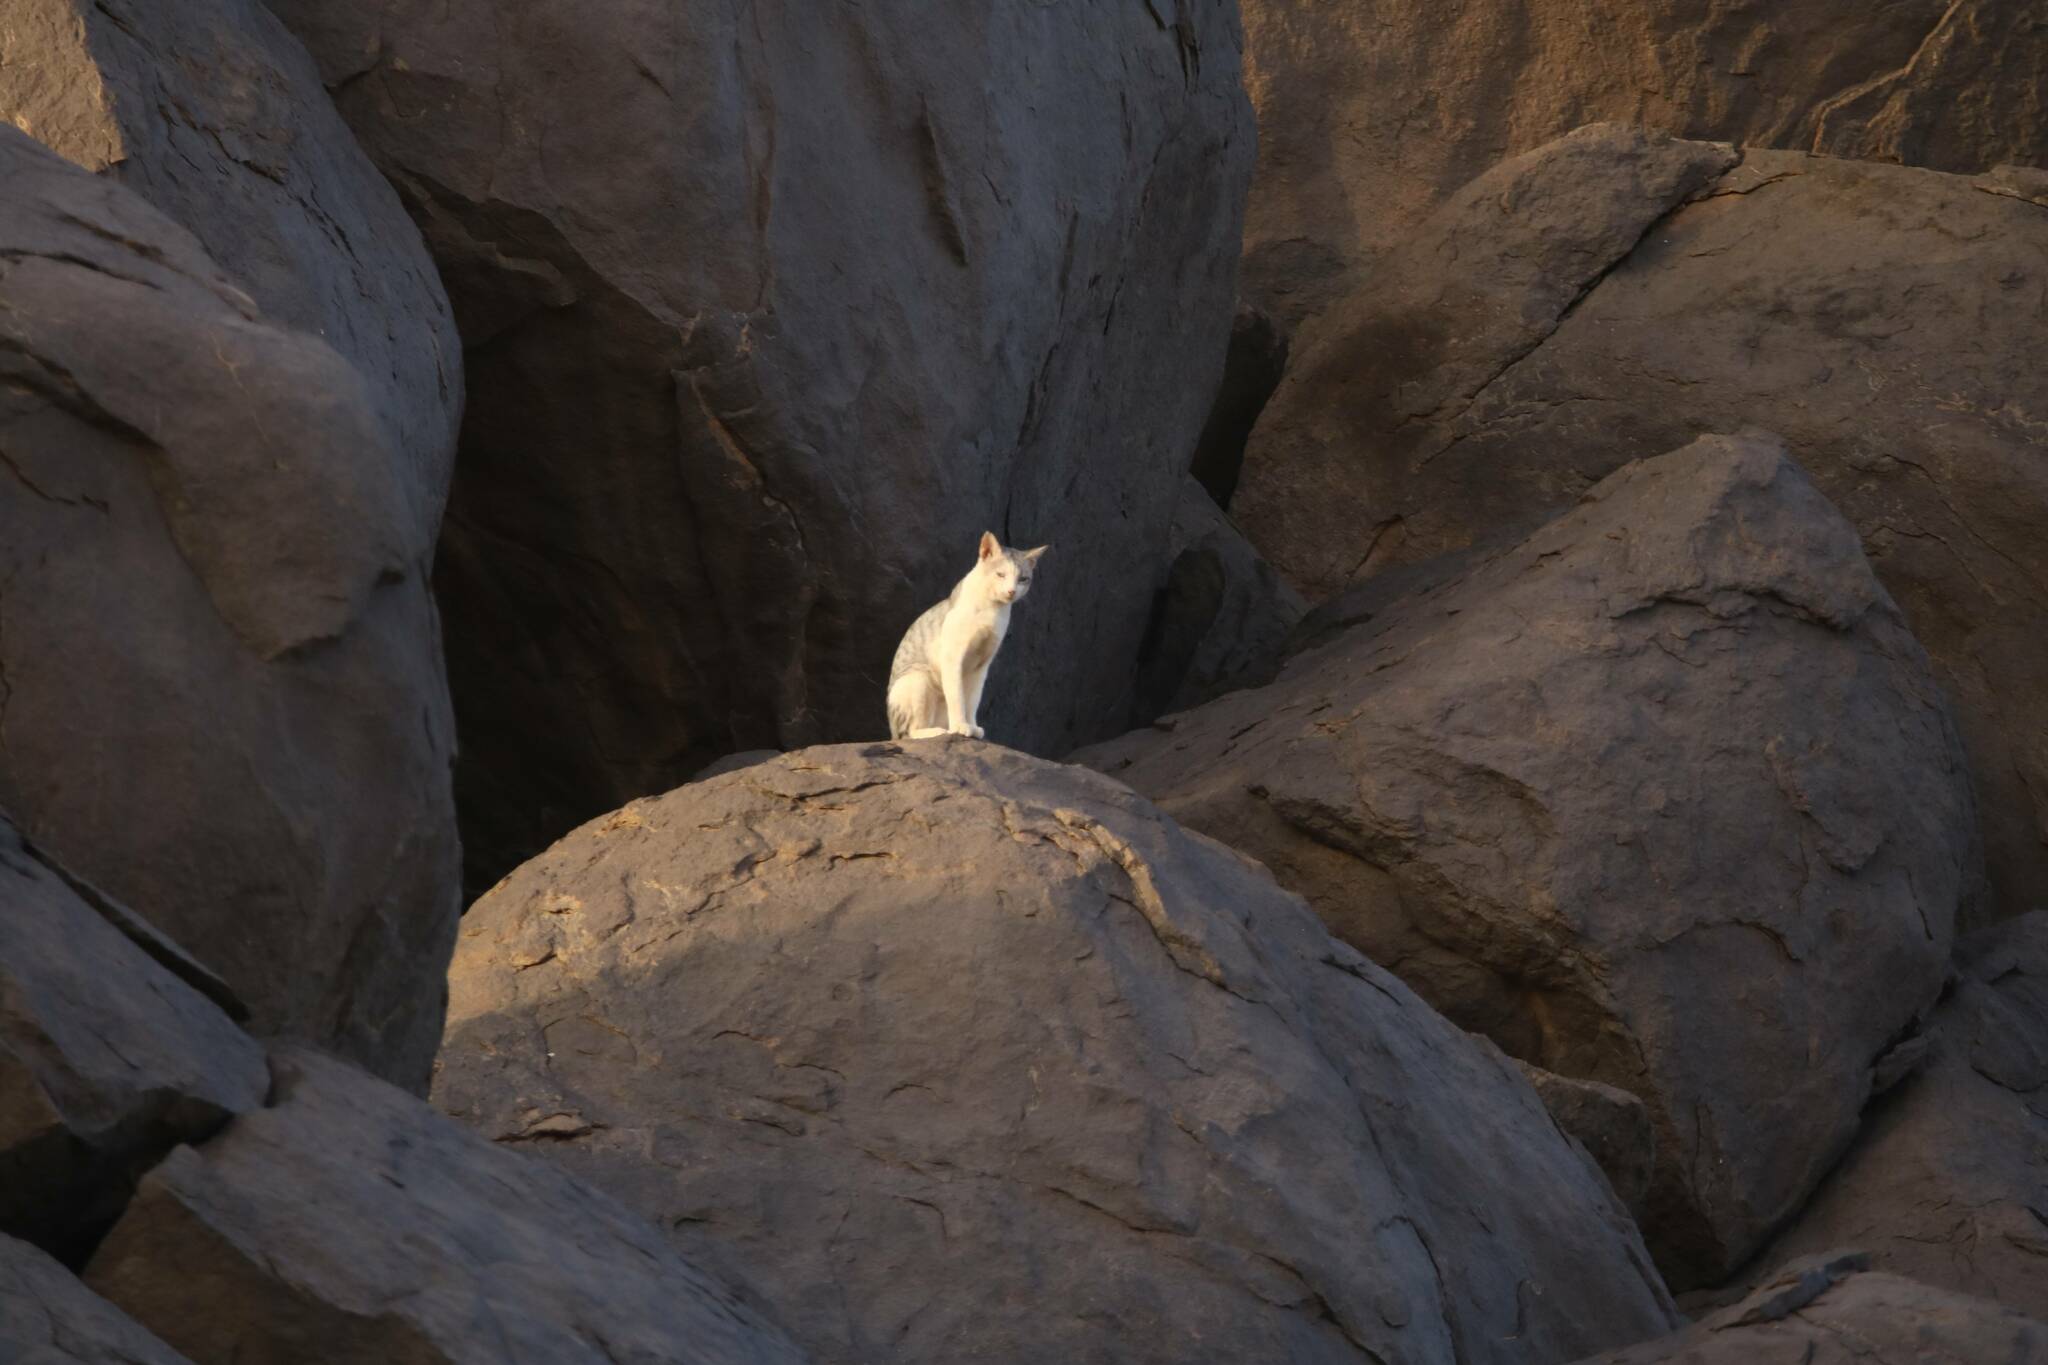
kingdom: Animalia
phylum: Chordata
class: Mammalia
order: Carnivora
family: Felidae
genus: Felis
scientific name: Felis catus
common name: Domestic cat
